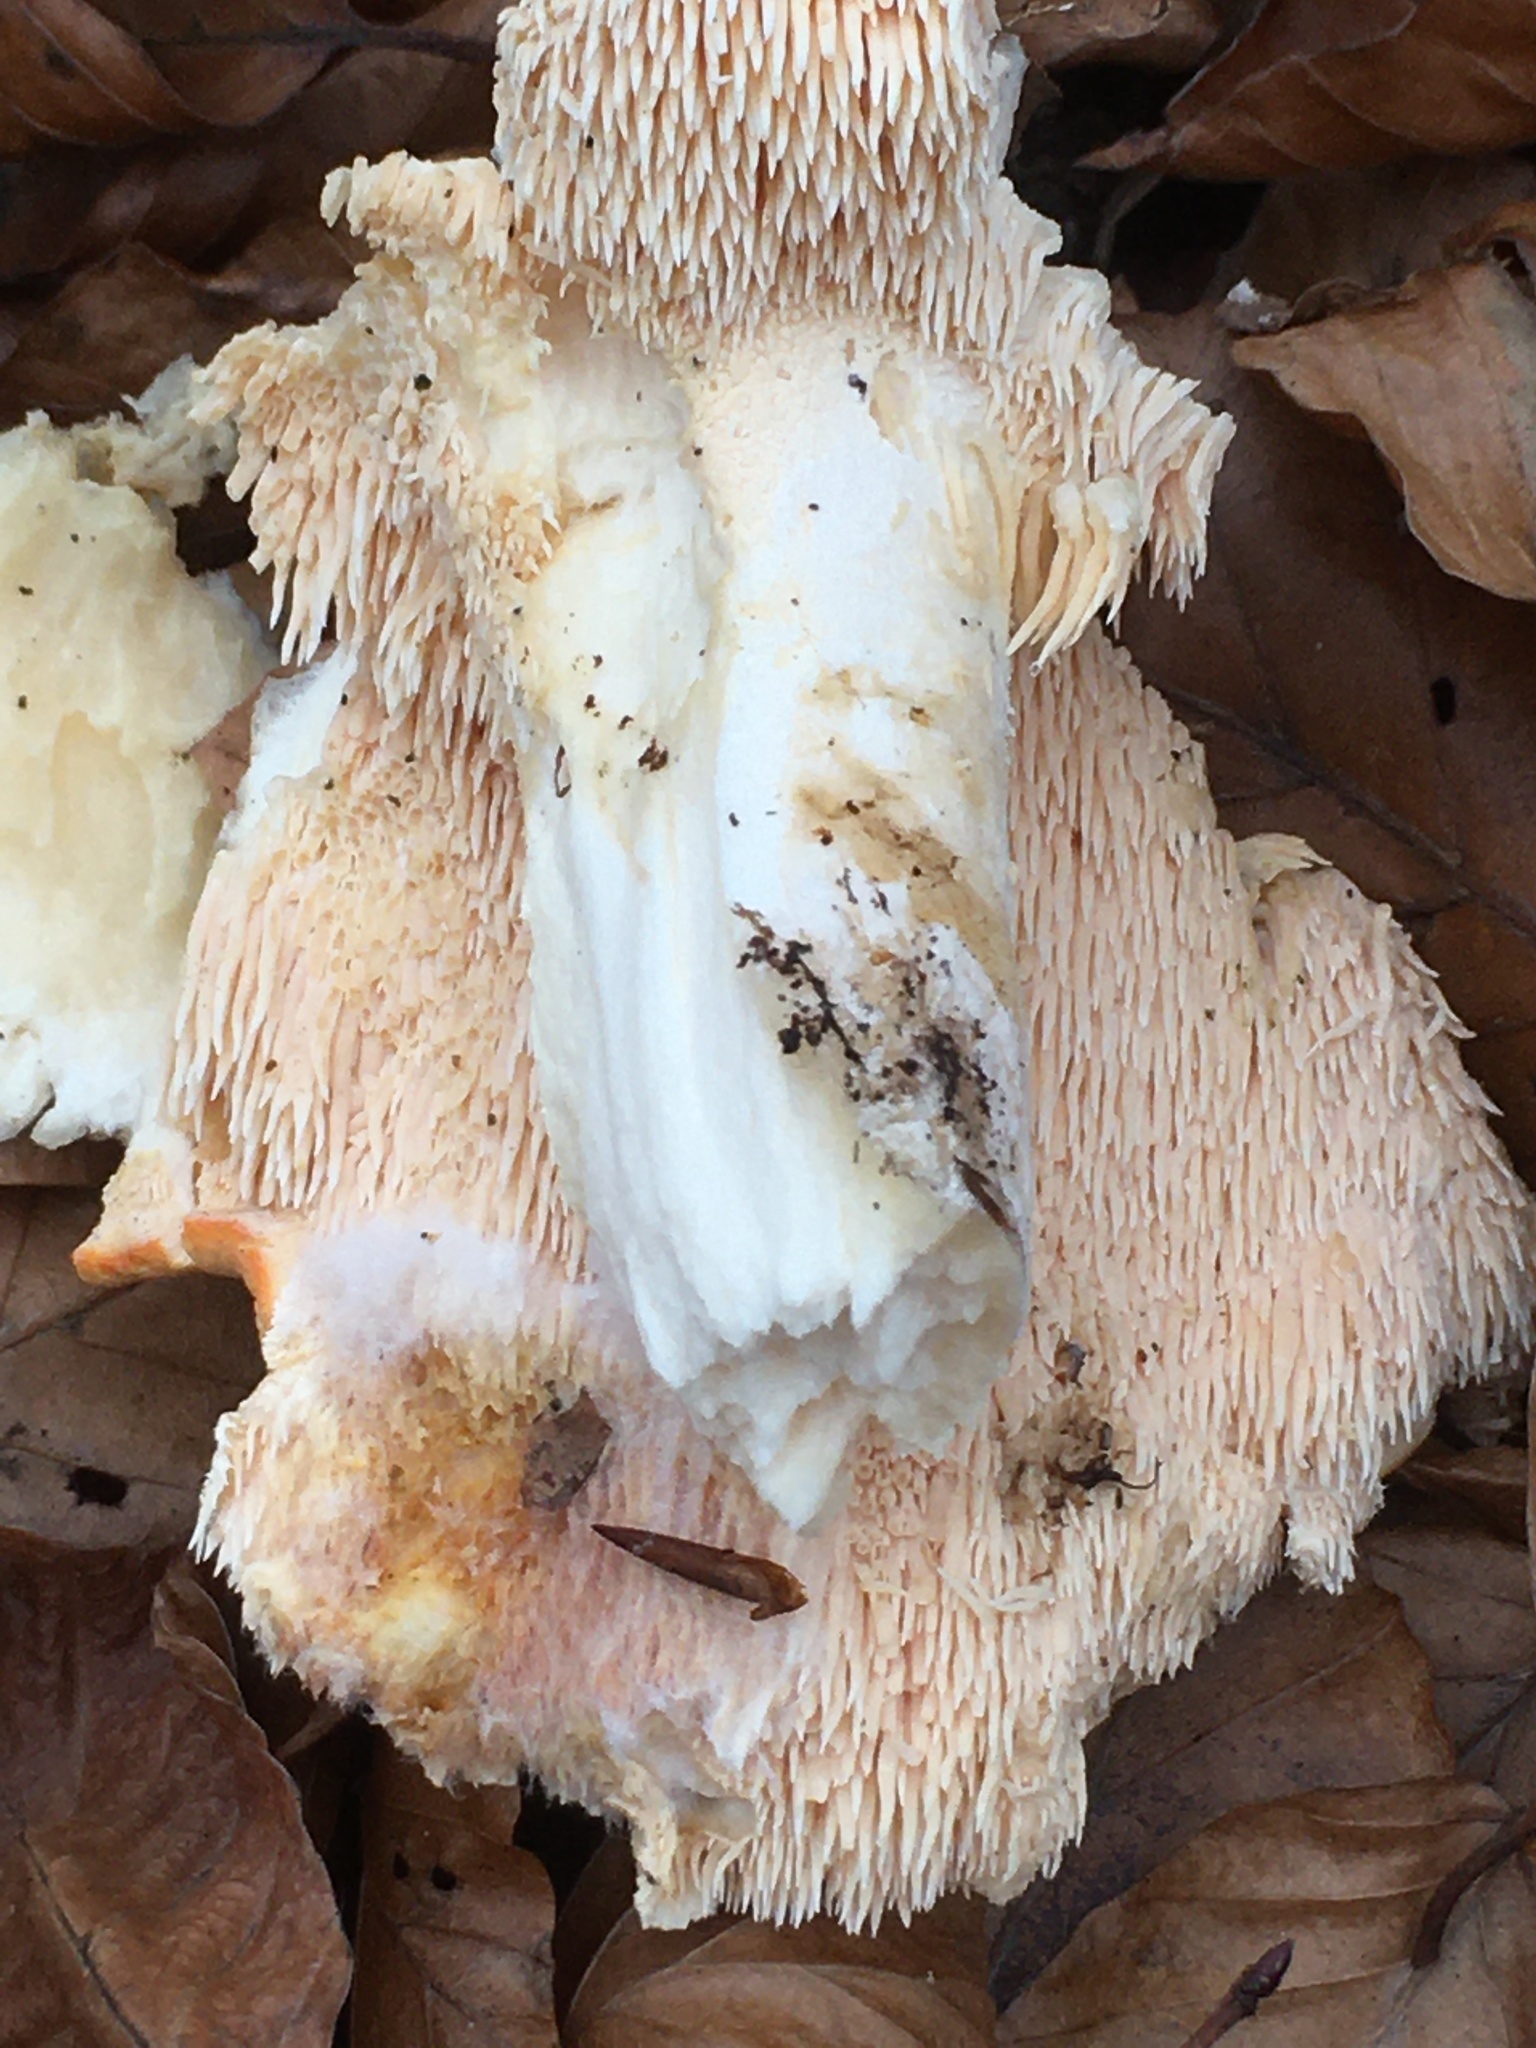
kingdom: Fungi
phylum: Basidiomycota
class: Agaricomycetes
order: Cantharellales
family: Hydnaceae
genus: Hydnum
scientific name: Hydnum repandum
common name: Wood hedgehog
